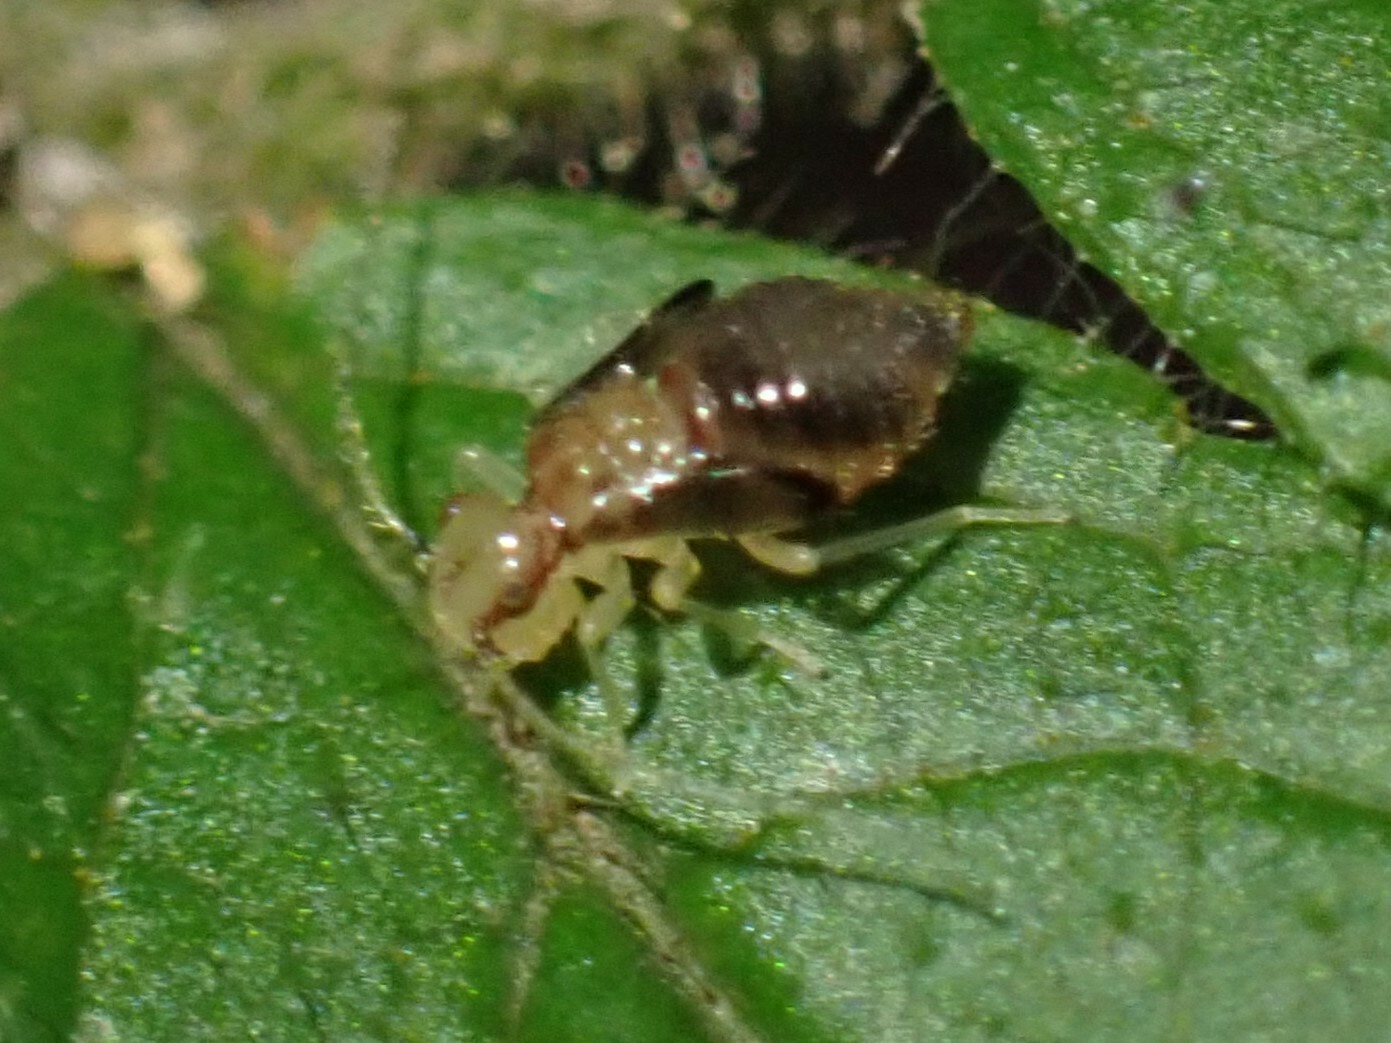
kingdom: Animalia
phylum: Arthropoda
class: Insecta
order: Psocodea
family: Amphipsocidae
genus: Polypsocus
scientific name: Polypsocus corruptus
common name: Corrupt barklouse
